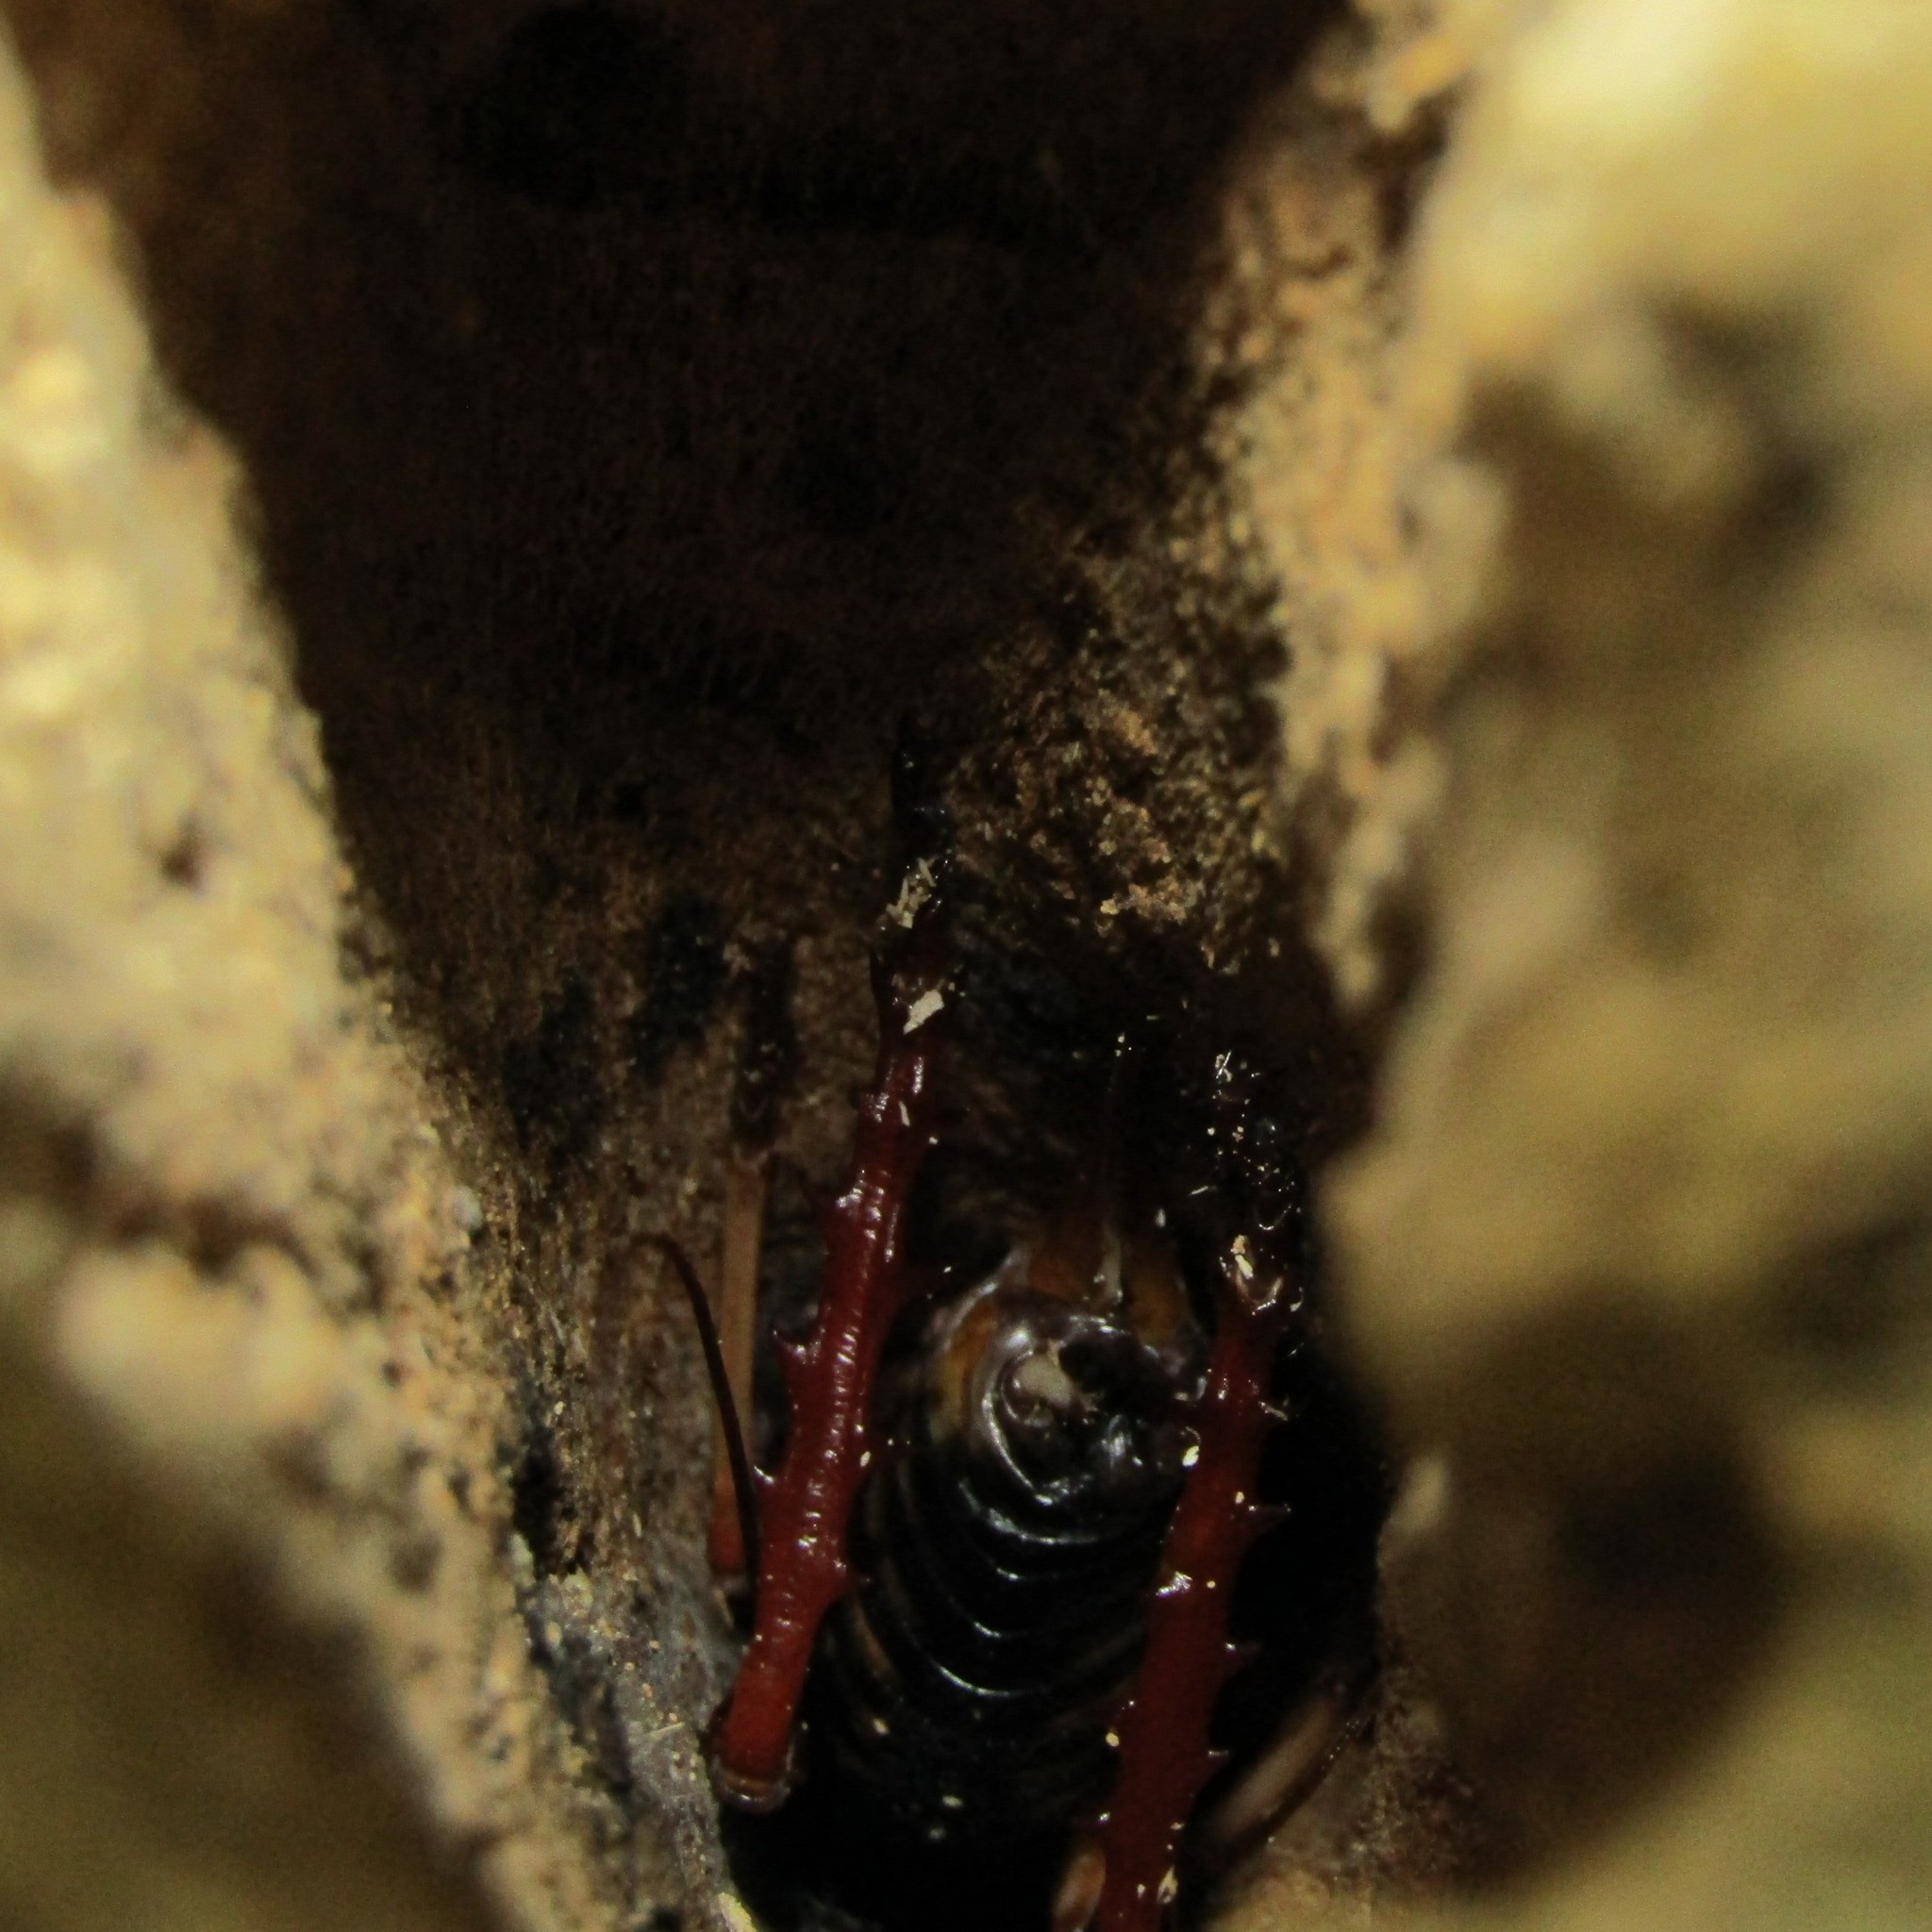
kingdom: Animalia
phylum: Arthropoda
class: Insecta
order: Orthoptera
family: Anostostomatidae
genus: Hemideina
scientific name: Hemideina crassidens
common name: Wellington tree weta
